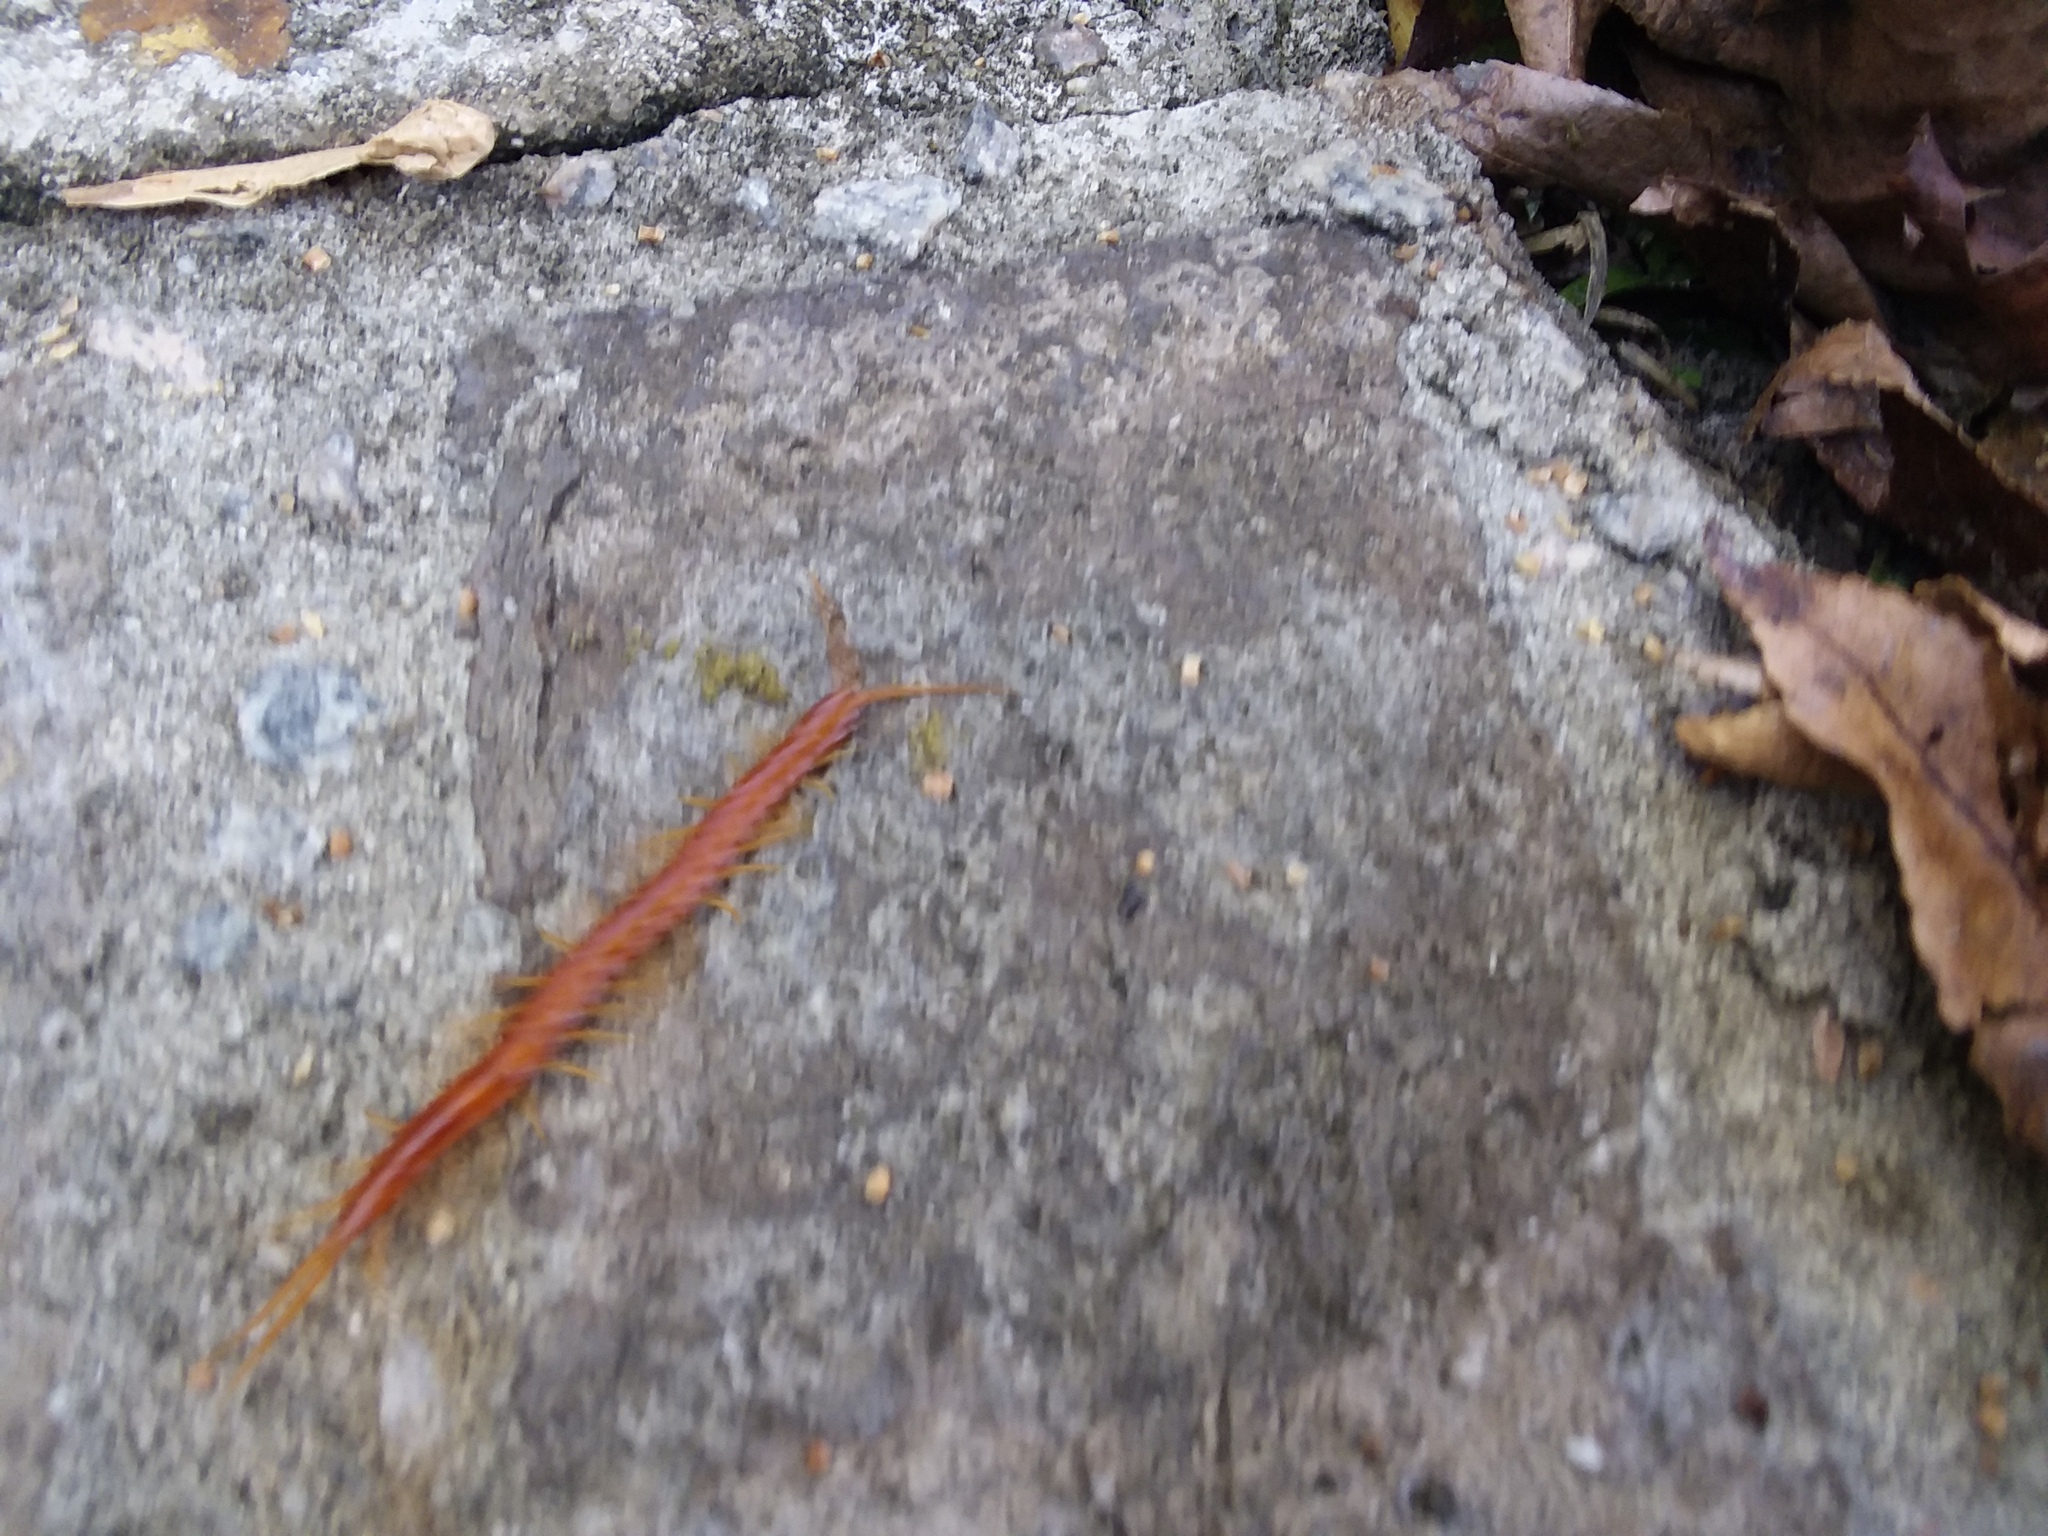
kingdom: Animalia
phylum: Arthropoda
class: Chilopoda
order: Scolopendromorpha
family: Scolopocryptopidae
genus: Scolopocryptops
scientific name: Scolopocryptops sexspinosus
